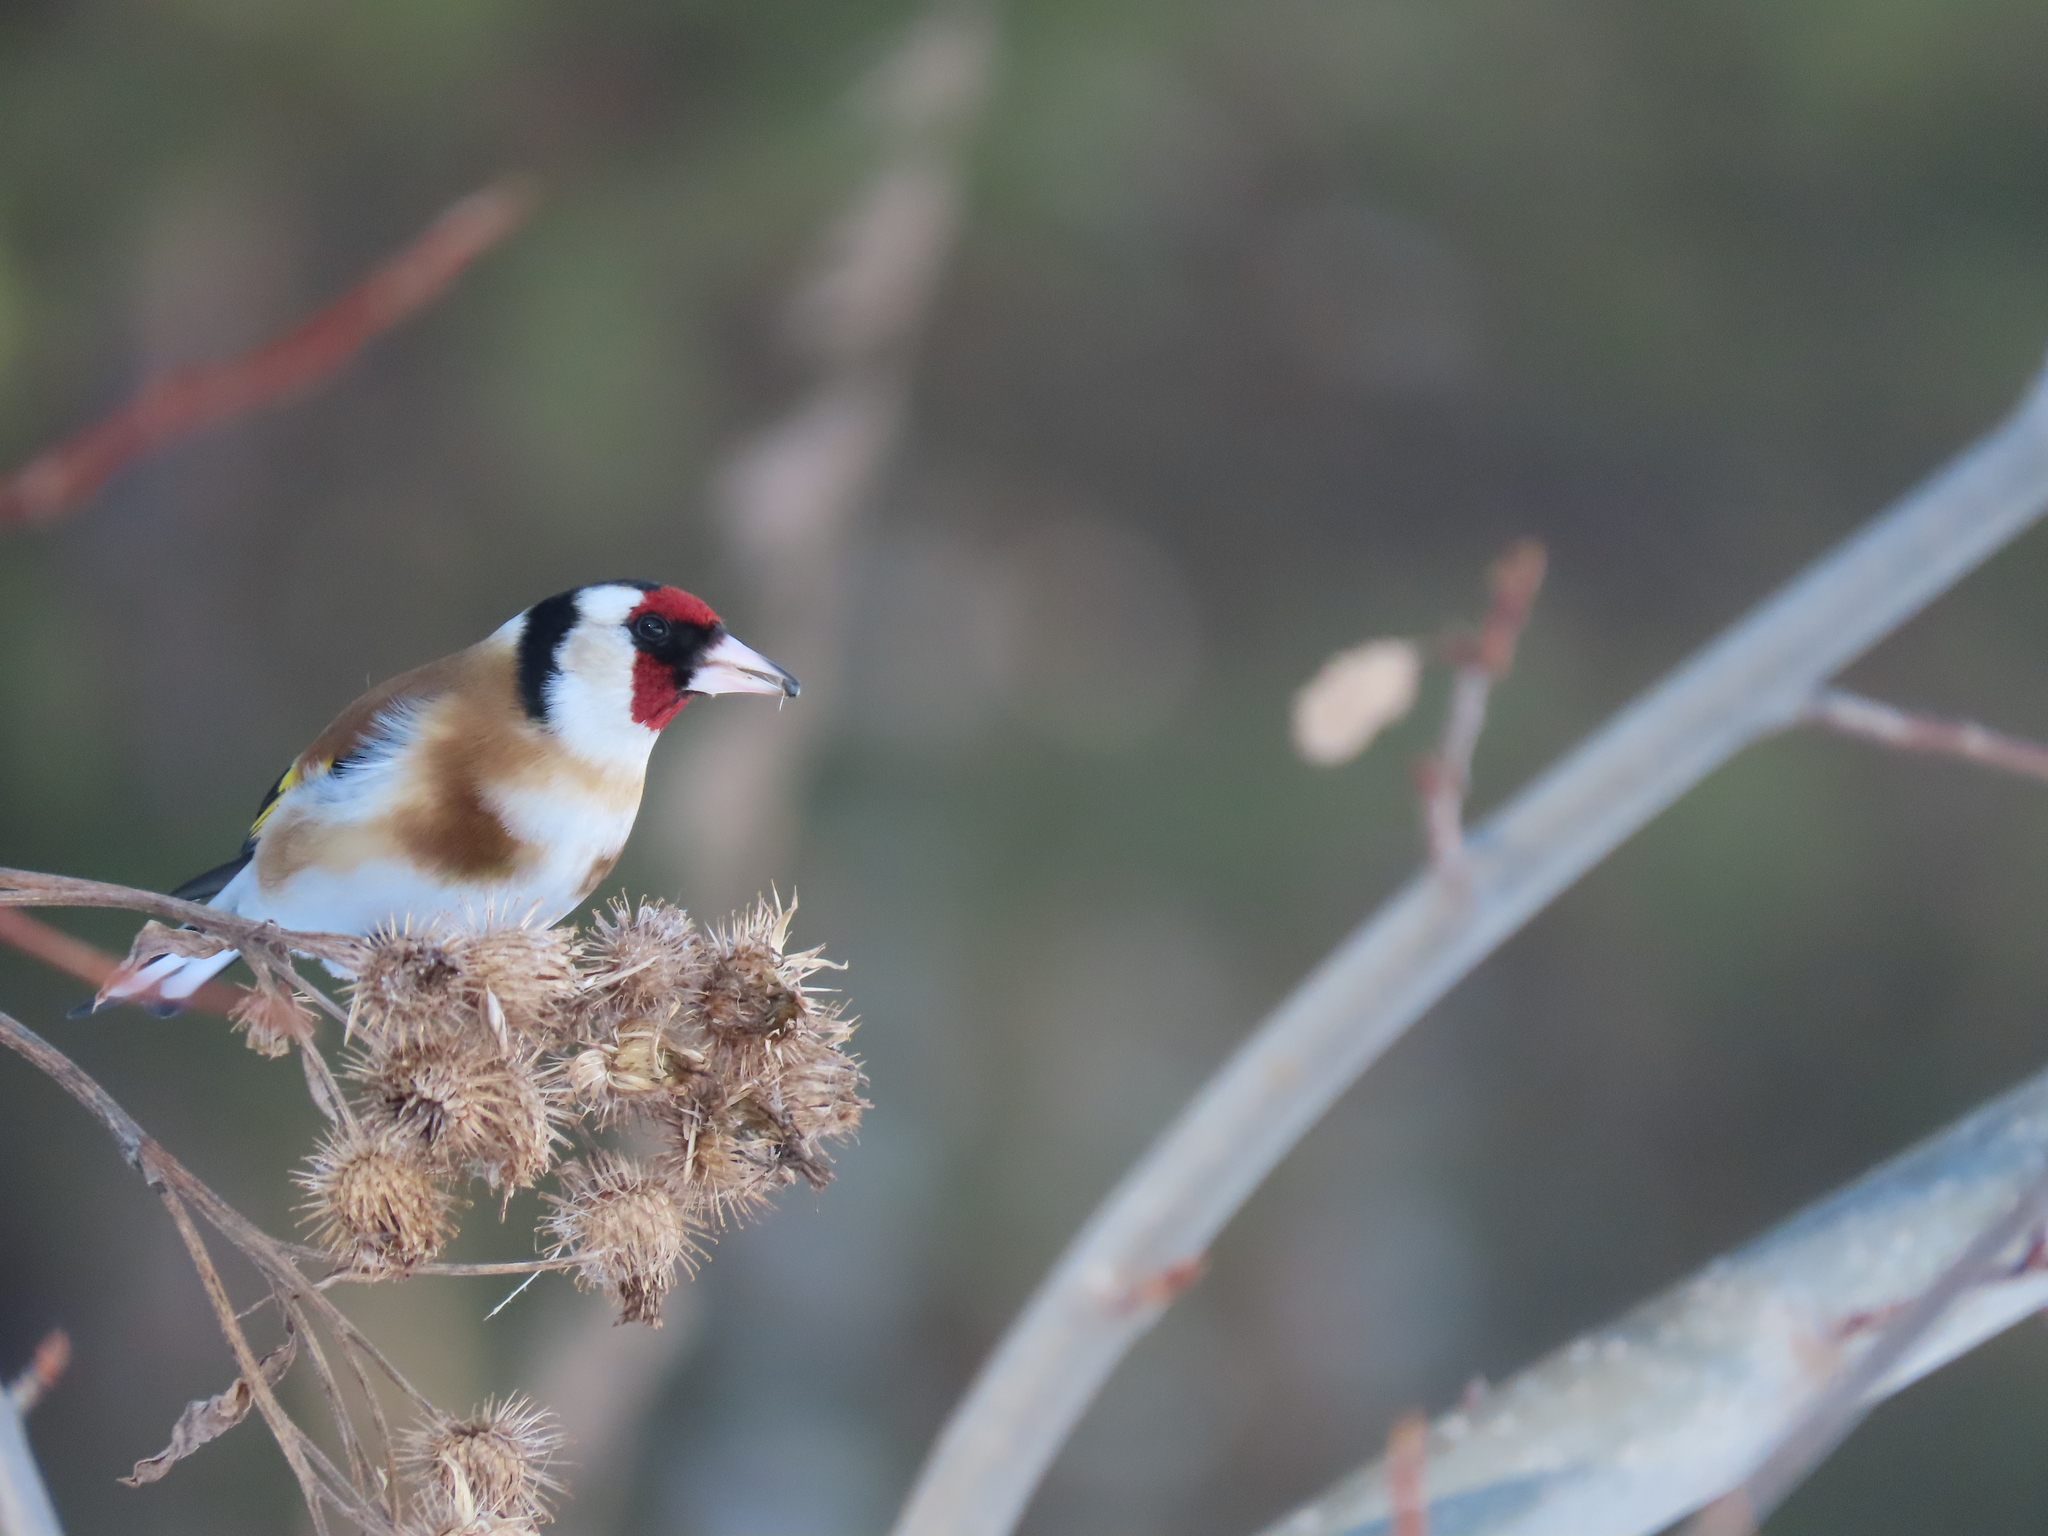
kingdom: Animalia
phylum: Chordata
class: Aves
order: Passeriformes
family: Fringillidae
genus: Carduelis
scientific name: Carduelis carduelis
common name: European goldfinch
